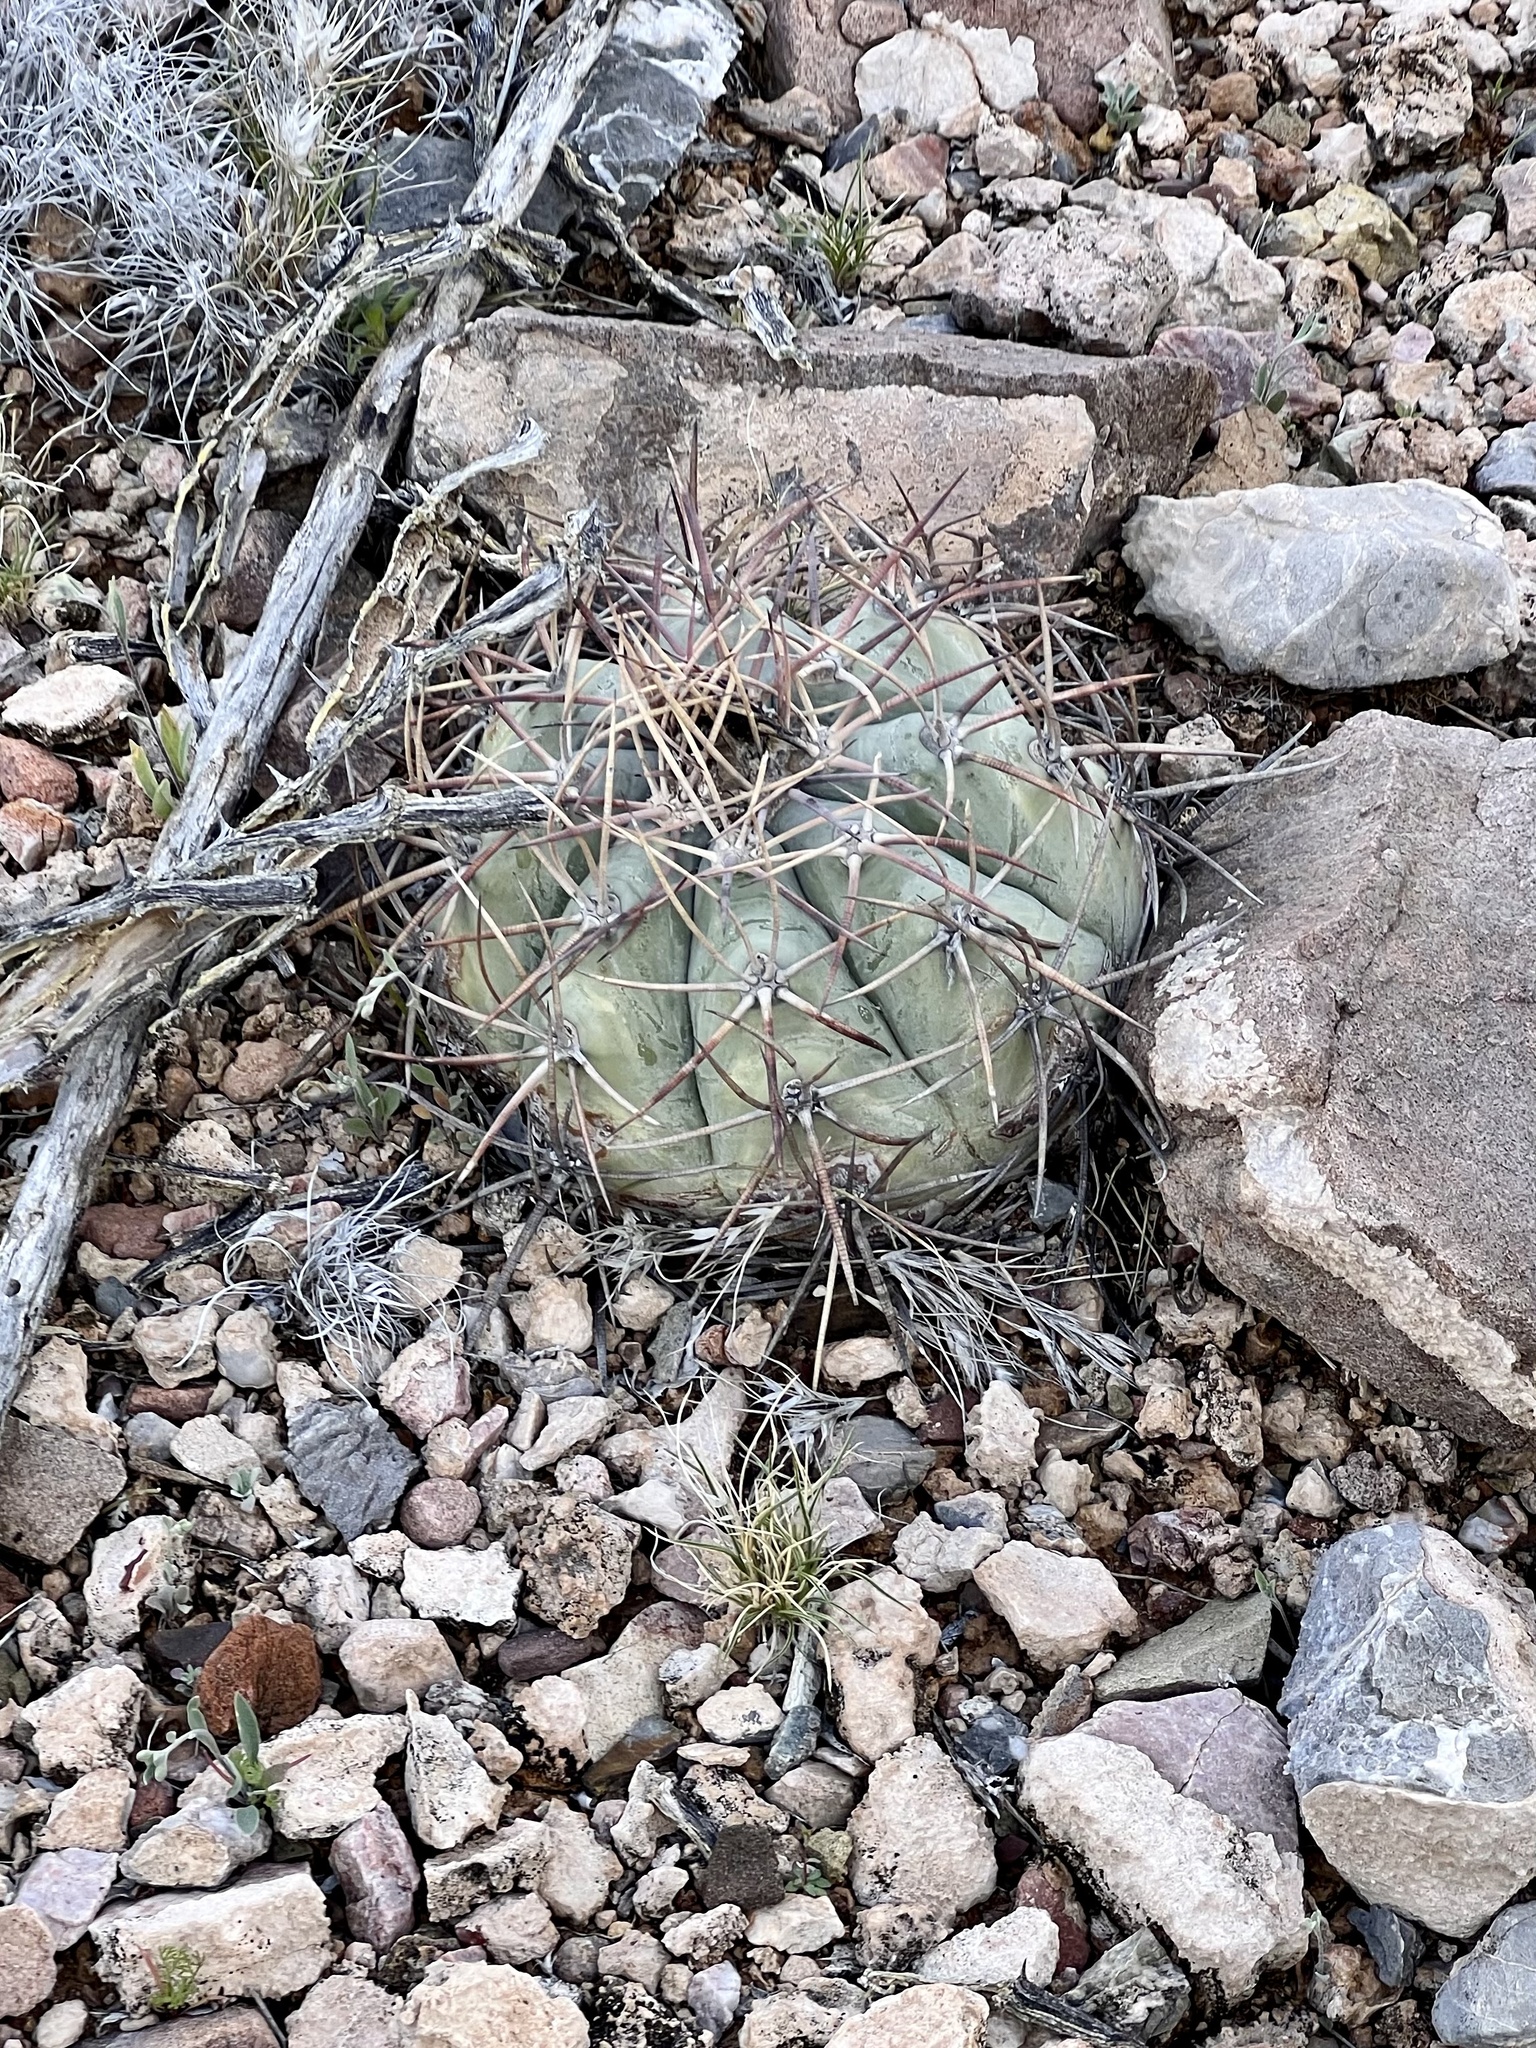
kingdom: Plantae
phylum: Tracheophyta
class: Magnoliopsida
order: Caryophyllales
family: Cactaceae
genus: Echinocactus
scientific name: Echinocactus horizonthalonius
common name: Devilshead
